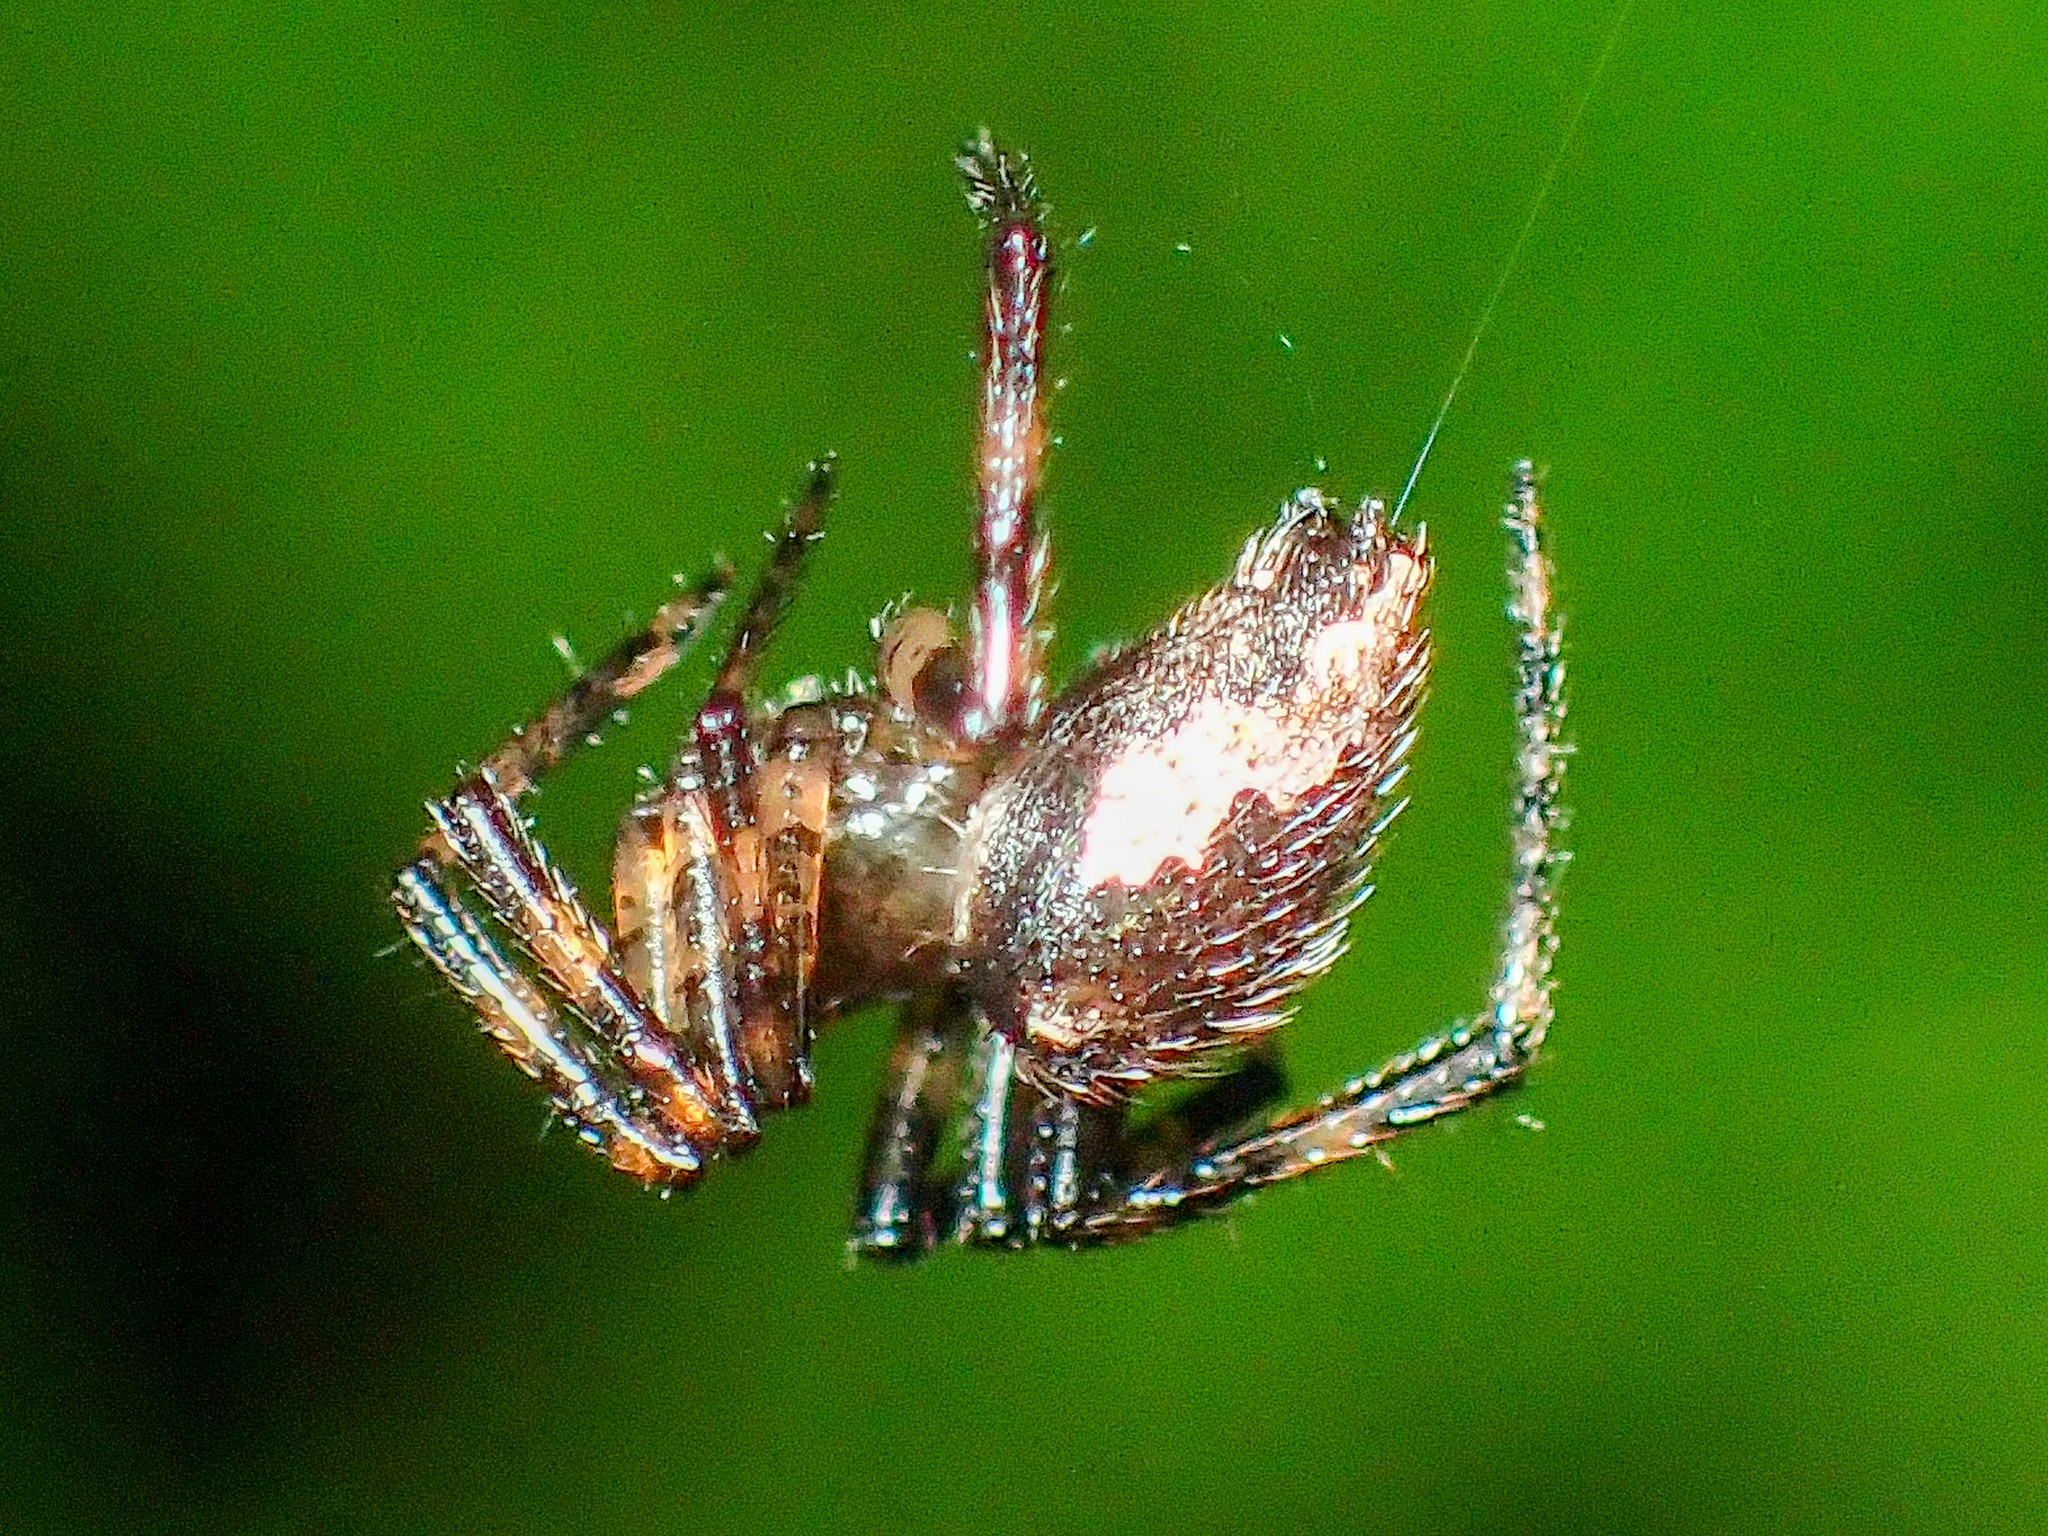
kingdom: Animalia
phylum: Arthropoda
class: Arachnida
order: Araneae
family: Theridiidae
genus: Euryopis
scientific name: Euryopis funebris
